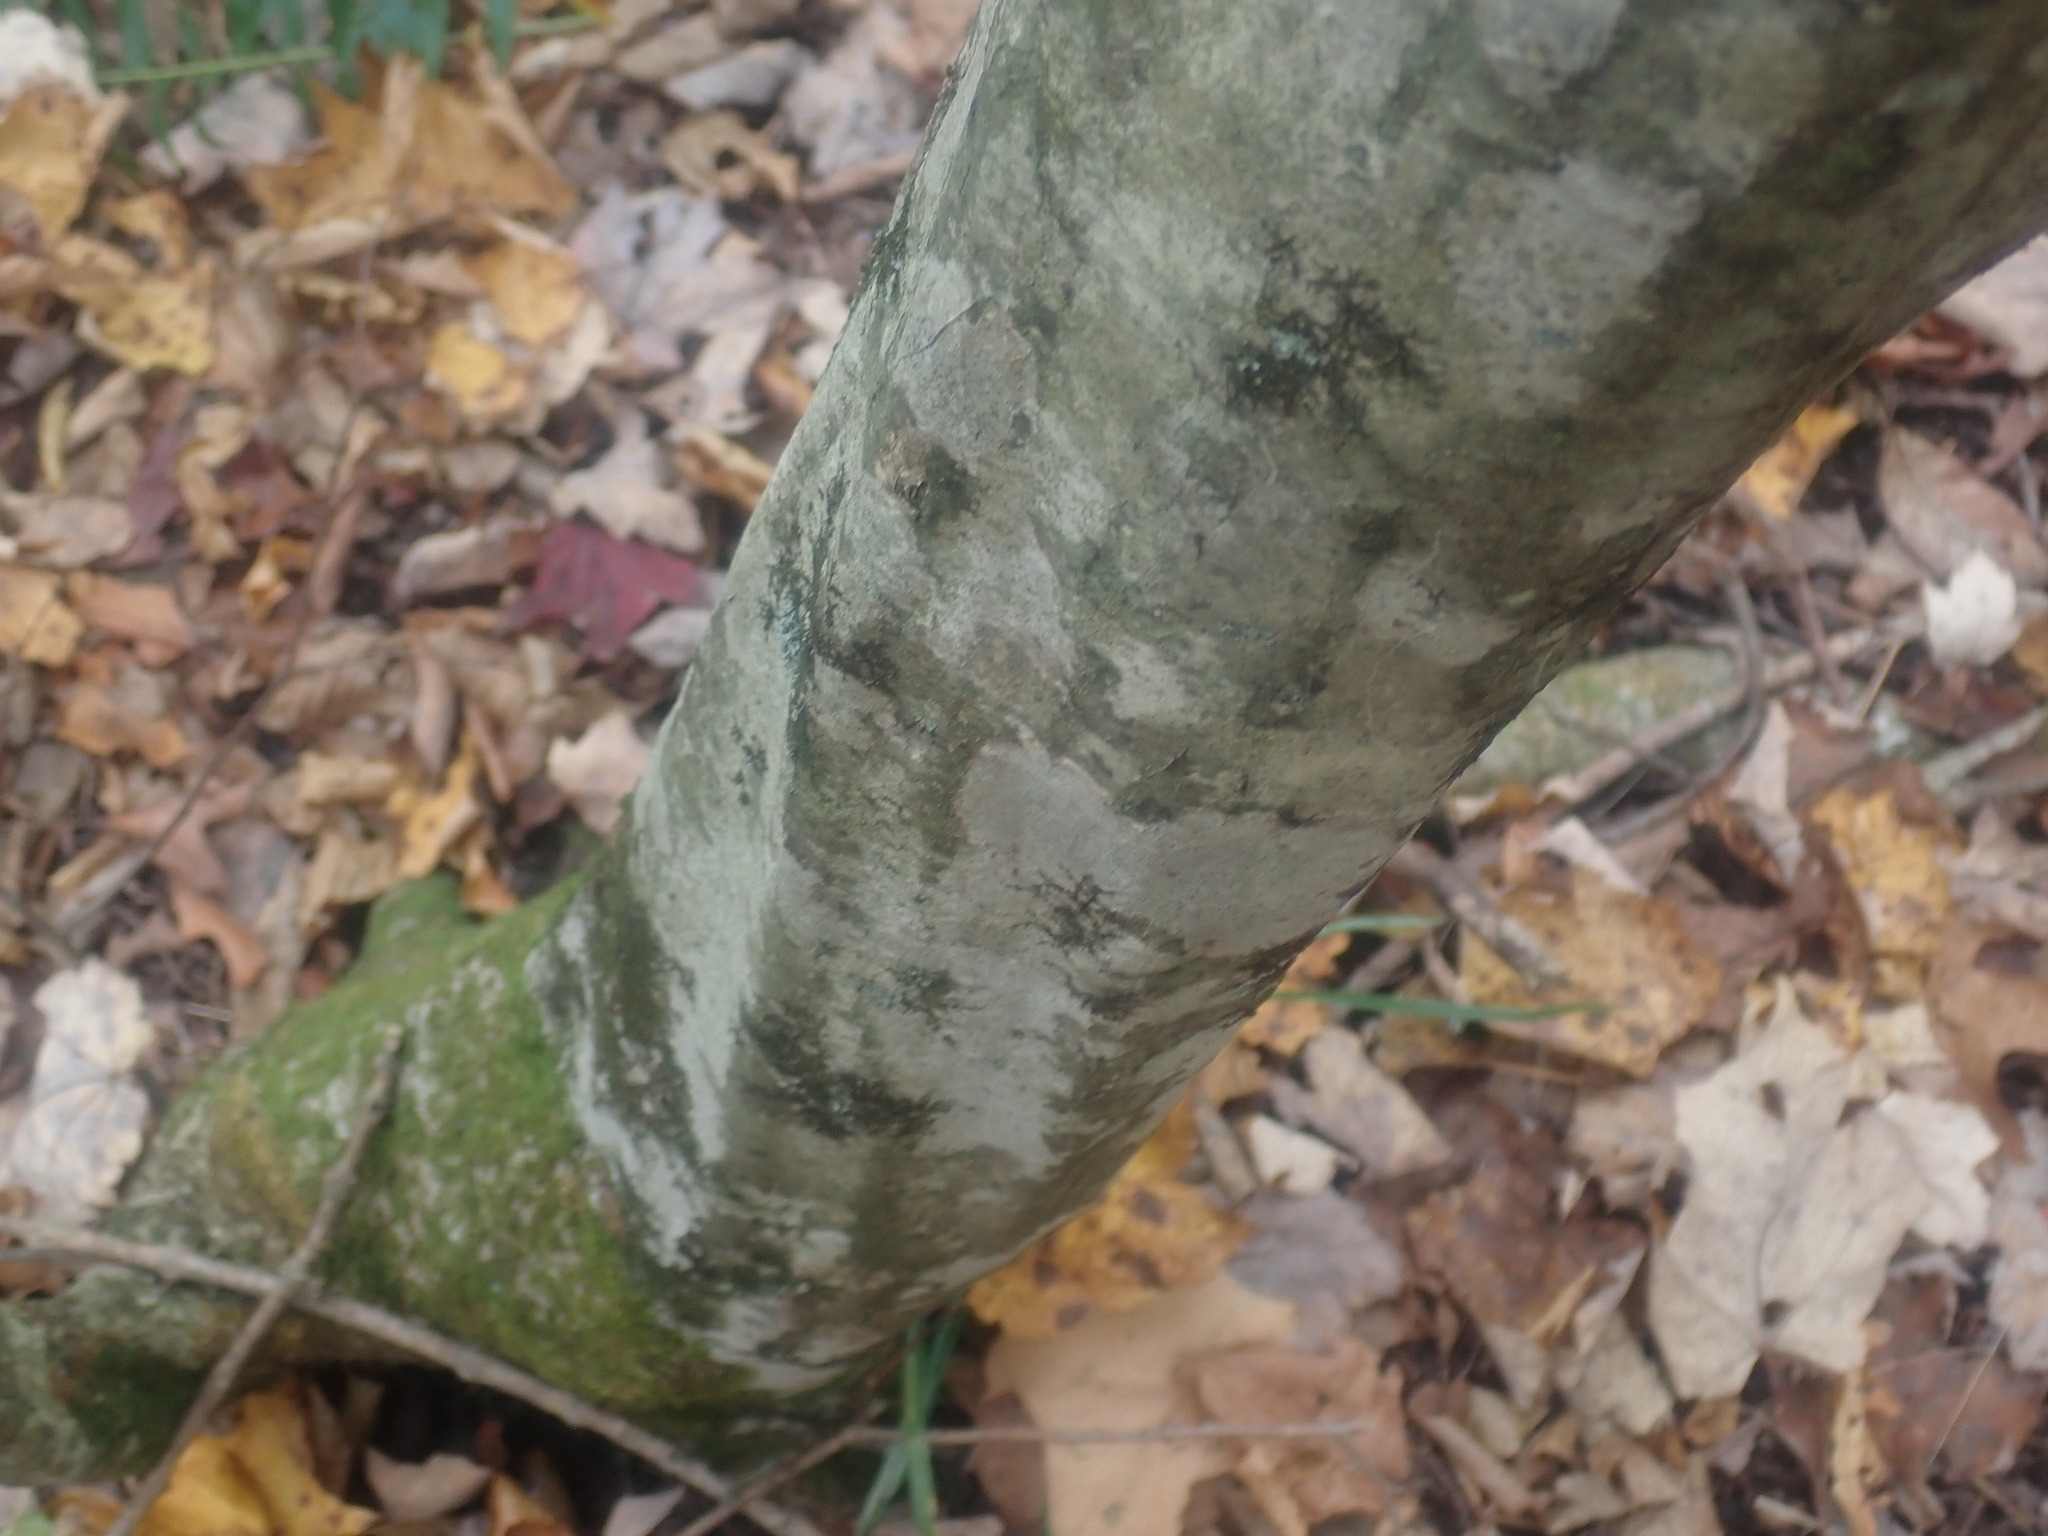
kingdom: Plantae
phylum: Tracheophyta
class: Magnoliopsida
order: Fagales
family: Betulaceae
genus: Carpinus
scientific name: Carpinus caroliniana
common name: American hornbeam
